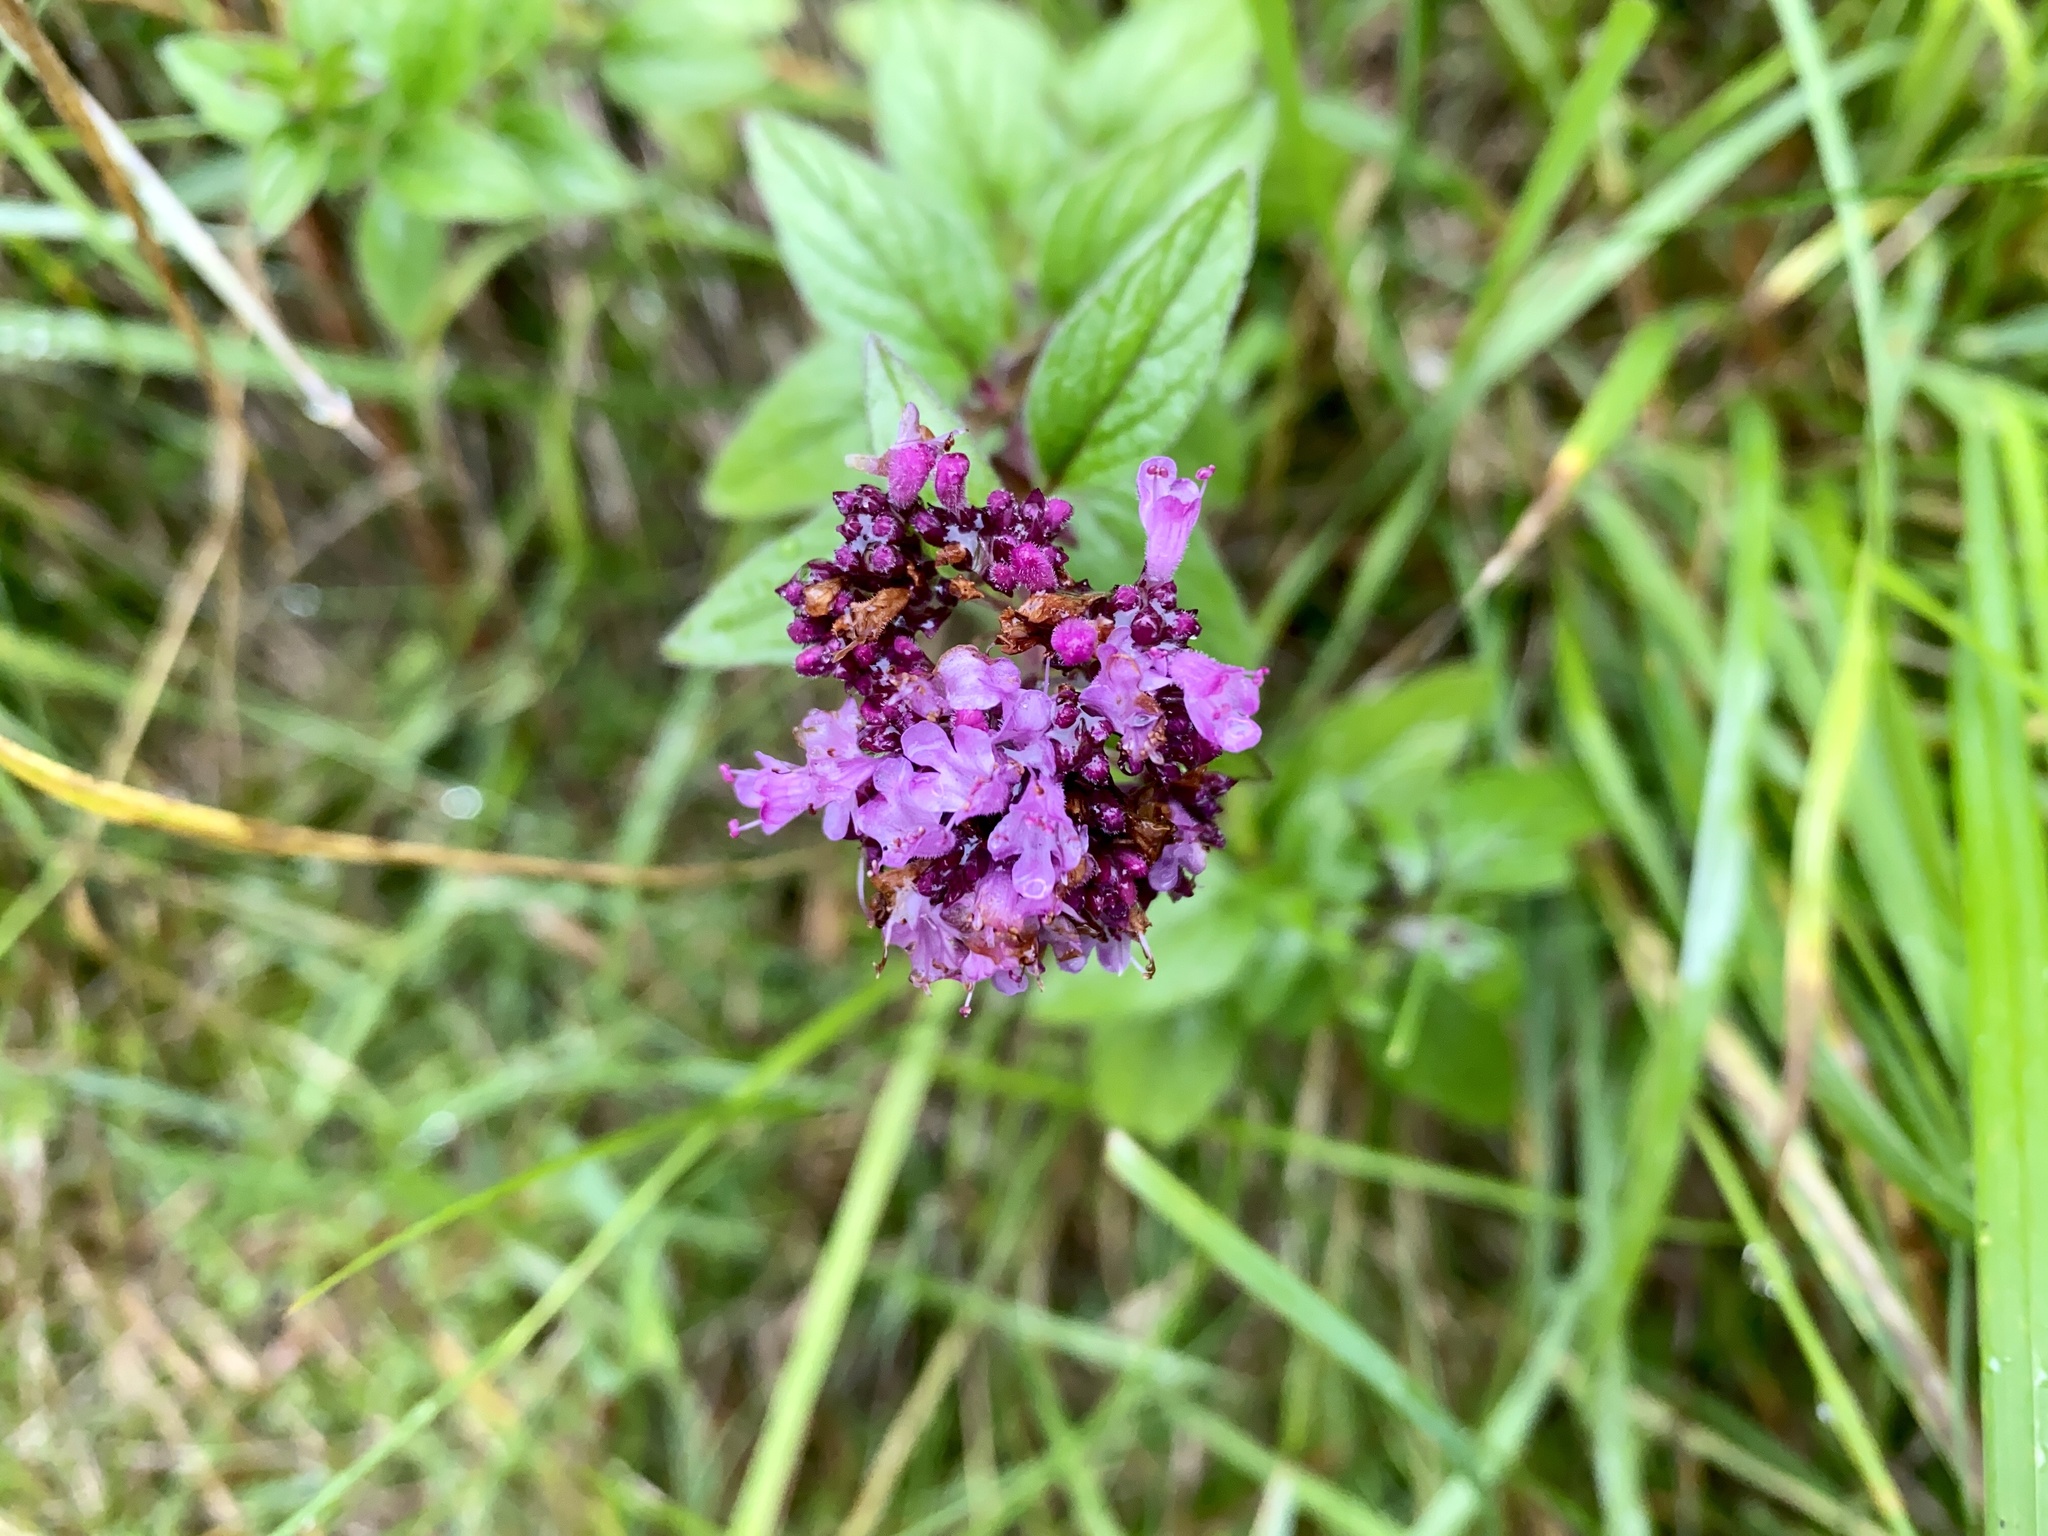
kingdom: Plantae
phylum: Tracheophyta
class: Magnoliopsida
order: Lamiales
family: Lamiaceae
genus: Origanum
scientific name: Origanum vulgare
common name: Wild marjoram
